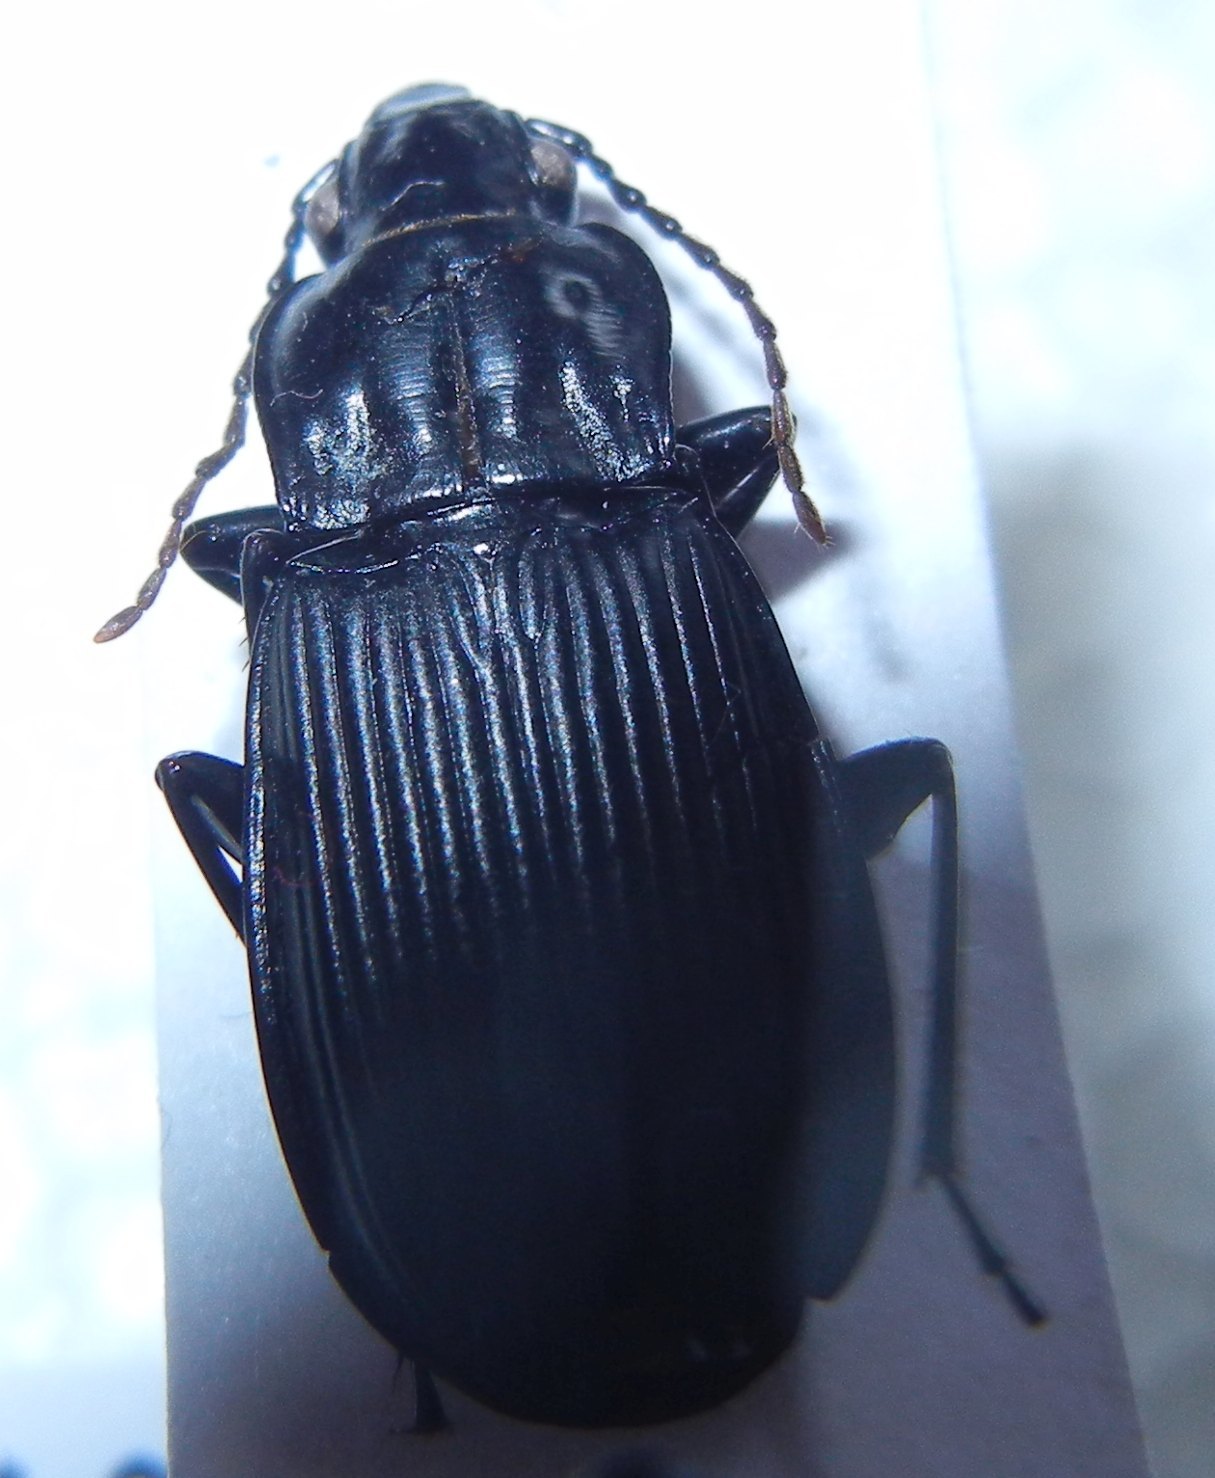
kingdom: Animalia
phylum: Arthropoda
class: Insecta
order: Coleoptera
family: Carabidae
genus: Pterostichus
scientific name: Pterostichus niger
